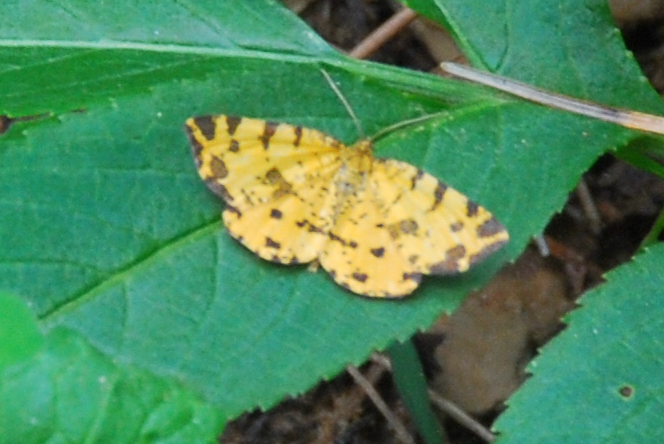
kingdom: Animalia
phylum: Arthropoda
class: Insecta
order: Lepidoptera
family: Geometridae
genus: Pseudopanthera
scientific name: Pseudopanthera macularia
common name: Speckled yellow
